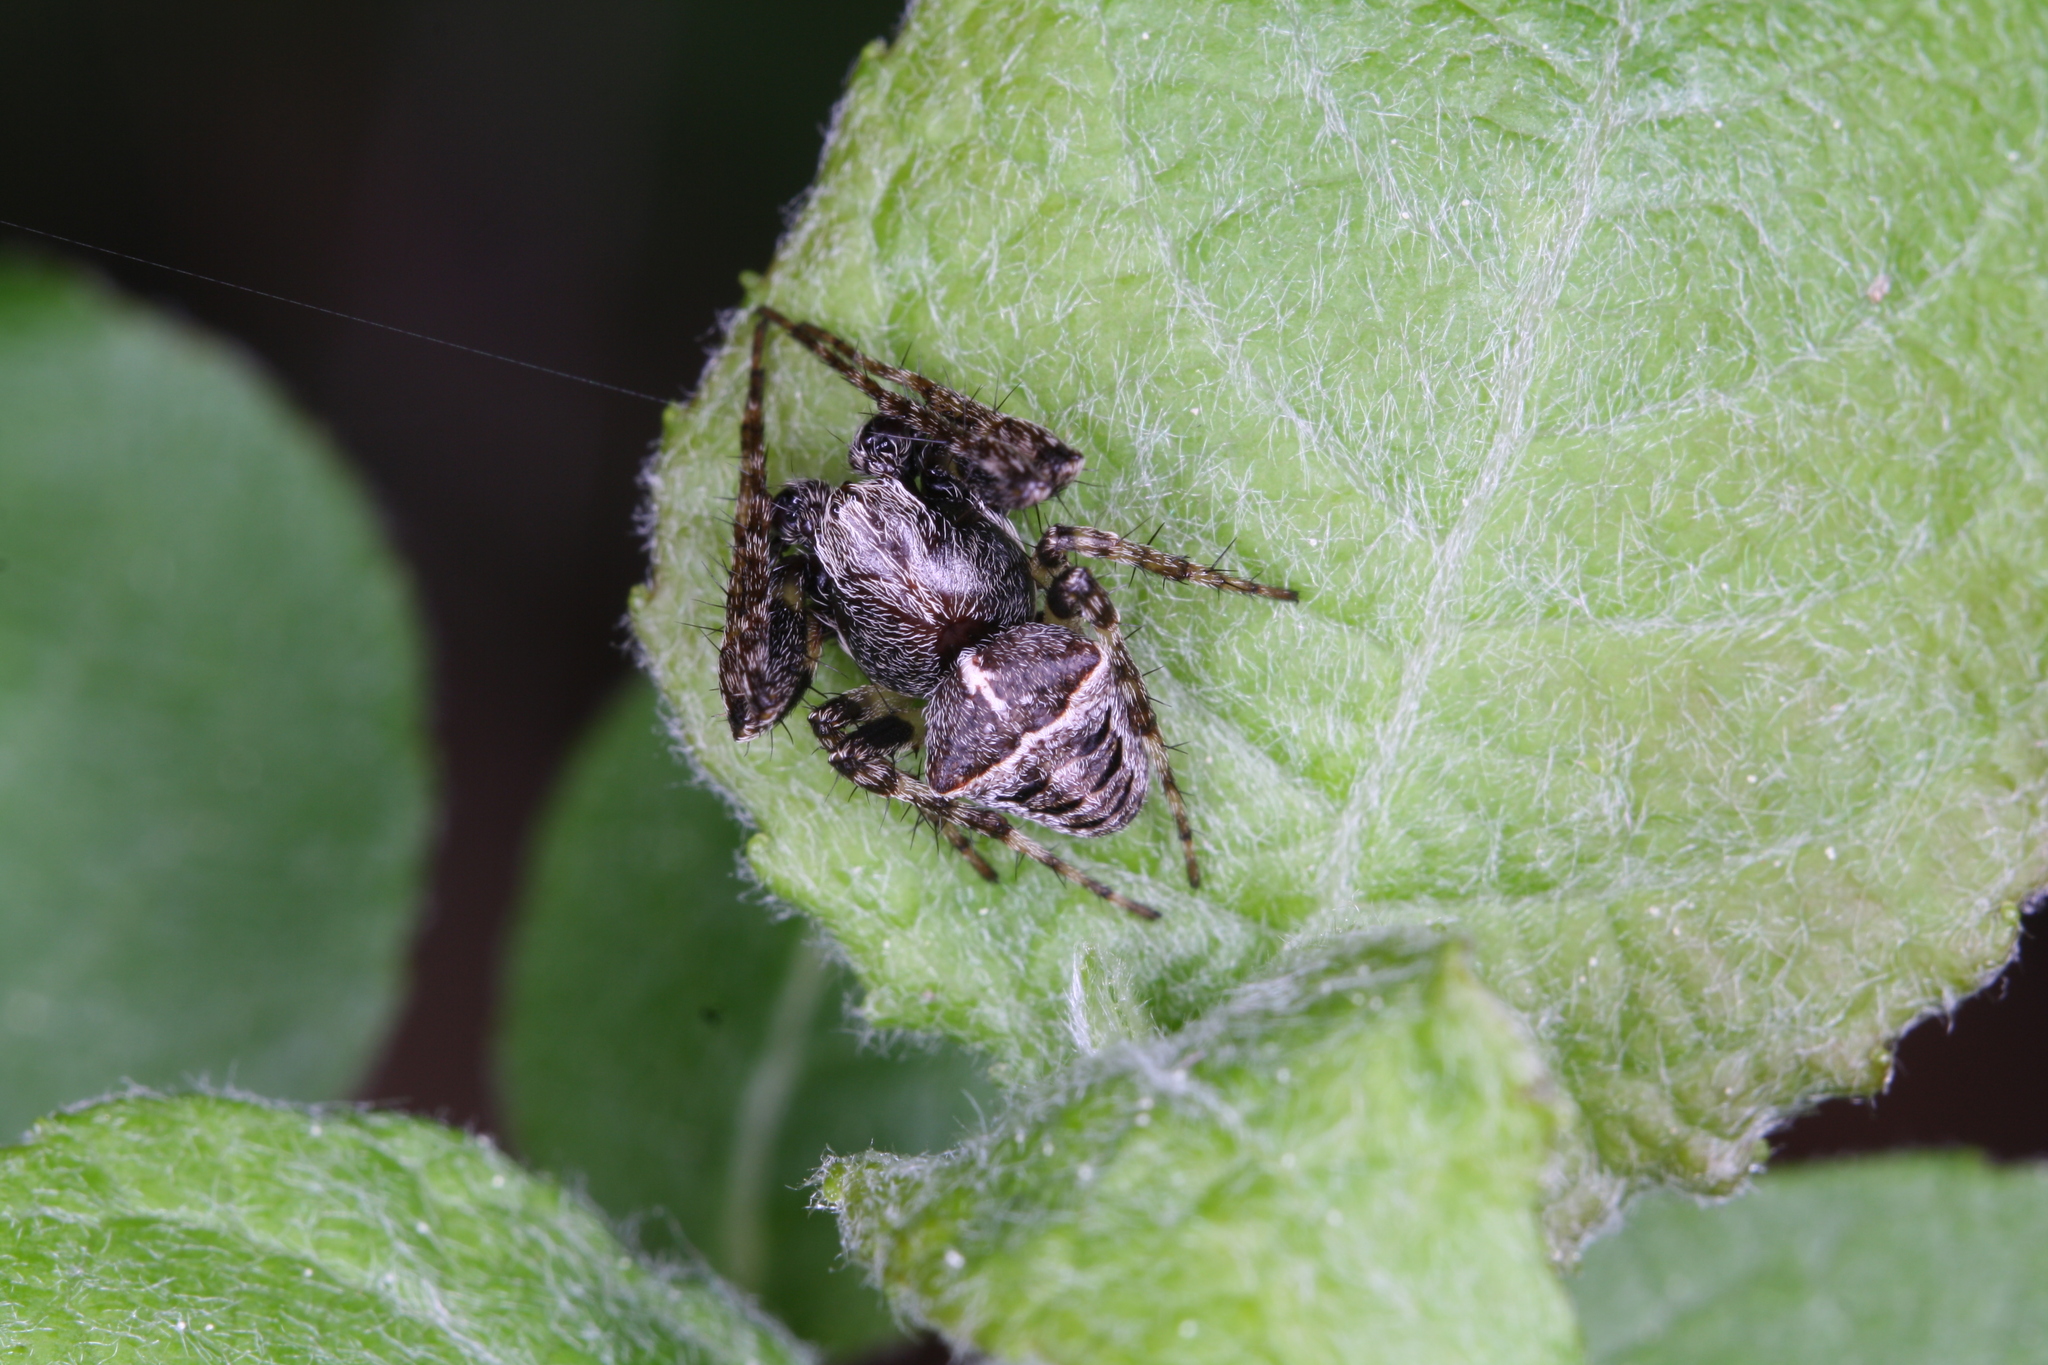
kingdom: Animalia
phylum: Arthropoda
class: Arachnida
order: Araneae
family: Araneidae
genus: Gibbaranea
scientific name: Gibbaranea bituberculata
